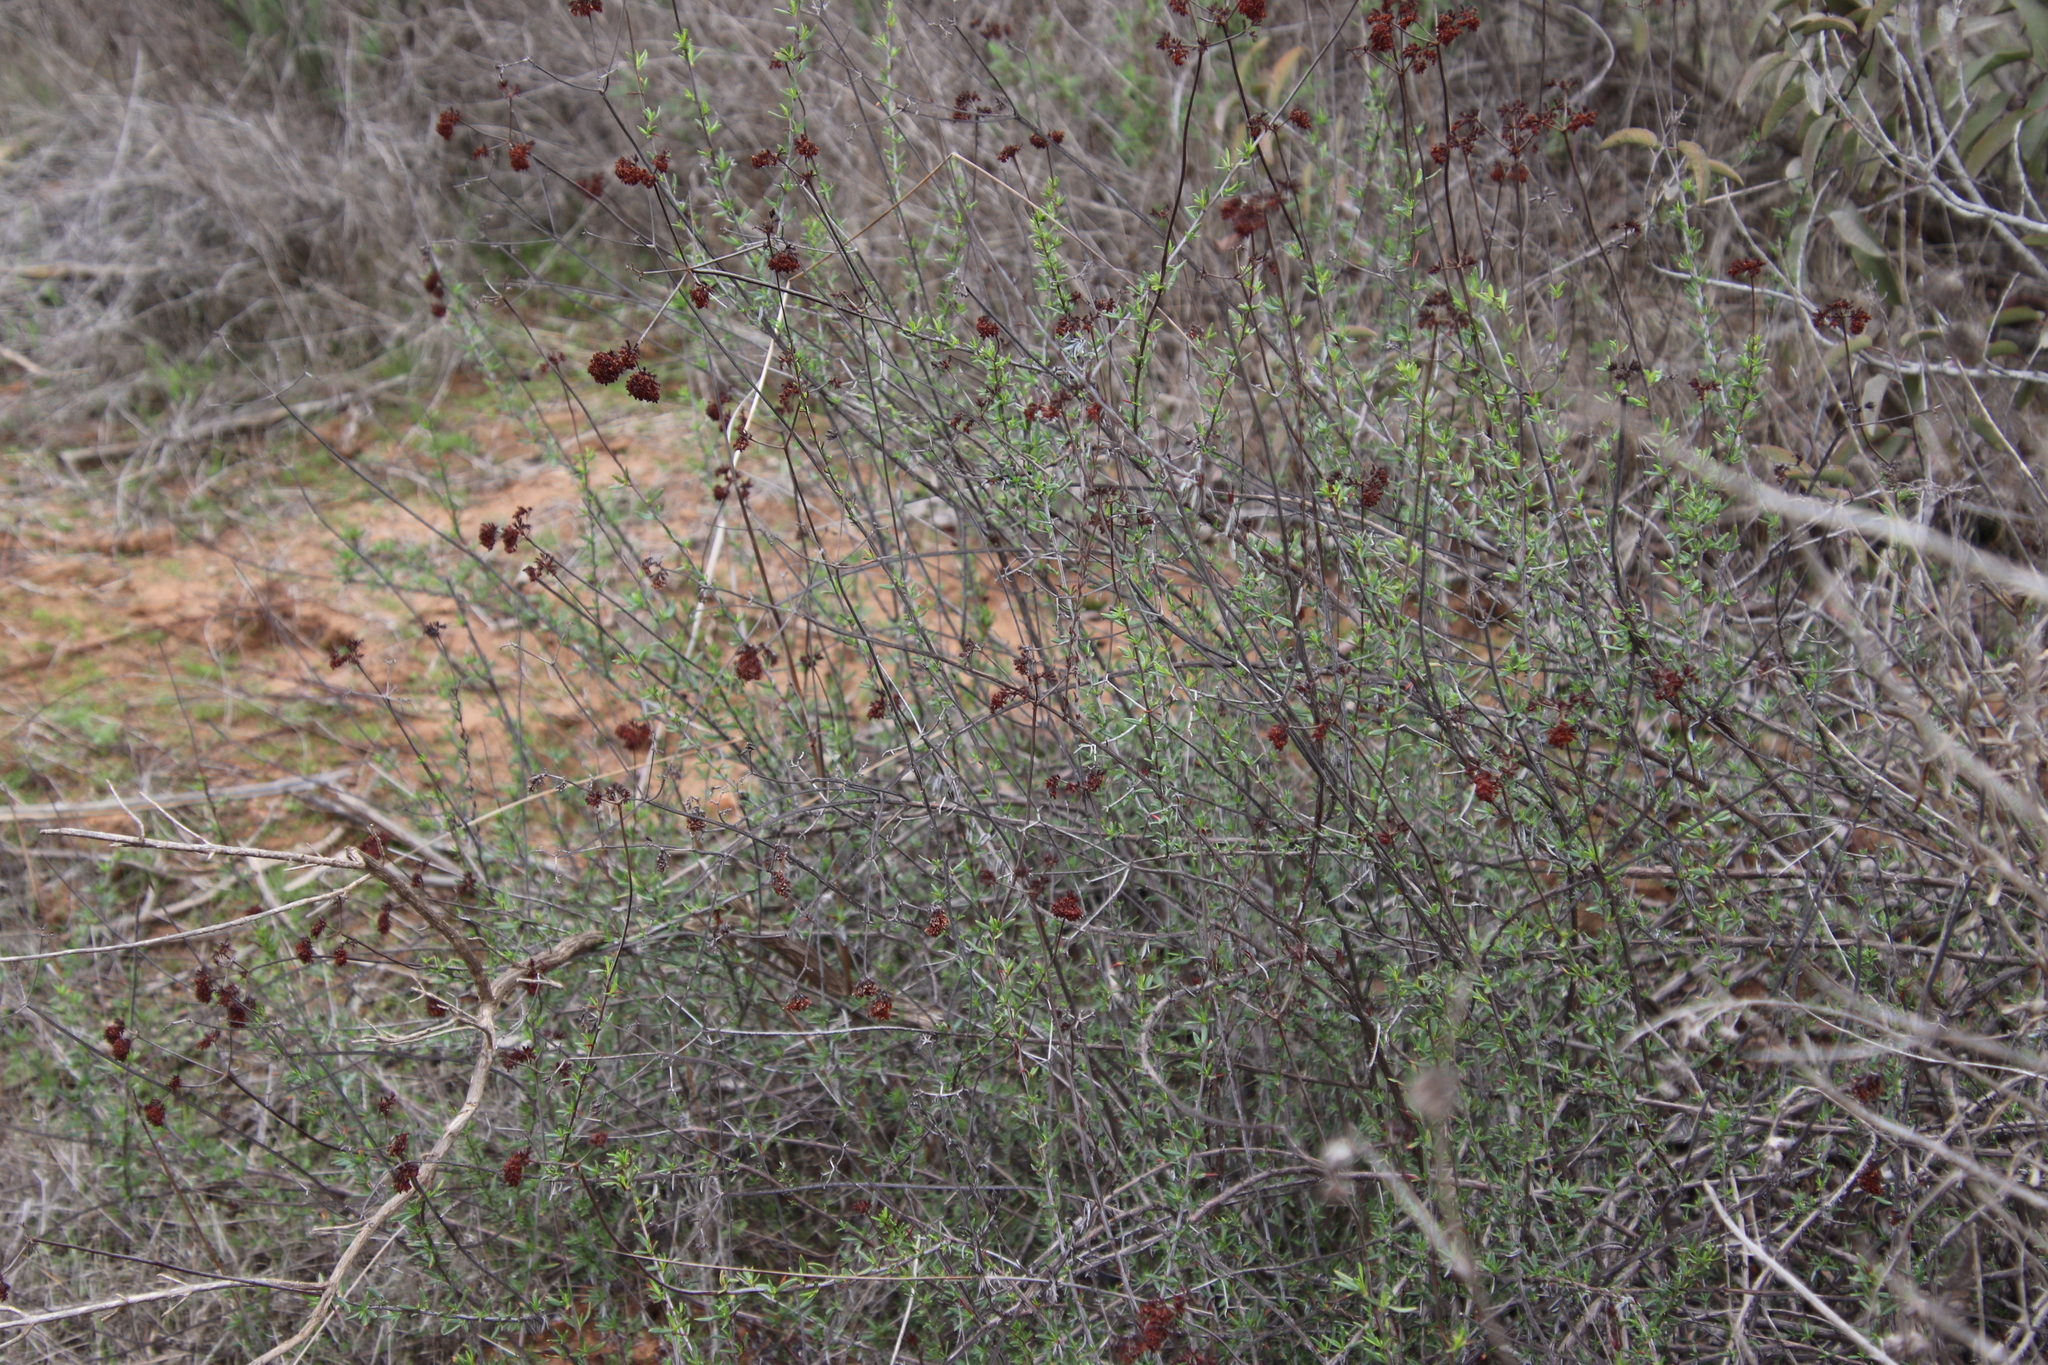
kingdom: Plantae
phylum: Tracheophyta
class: Magnoliopsida
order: Caryophyllales
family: Polygonaceae
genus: Eriogonum
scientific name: Eriogonum fasciculatum
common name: California wild buckwheat
